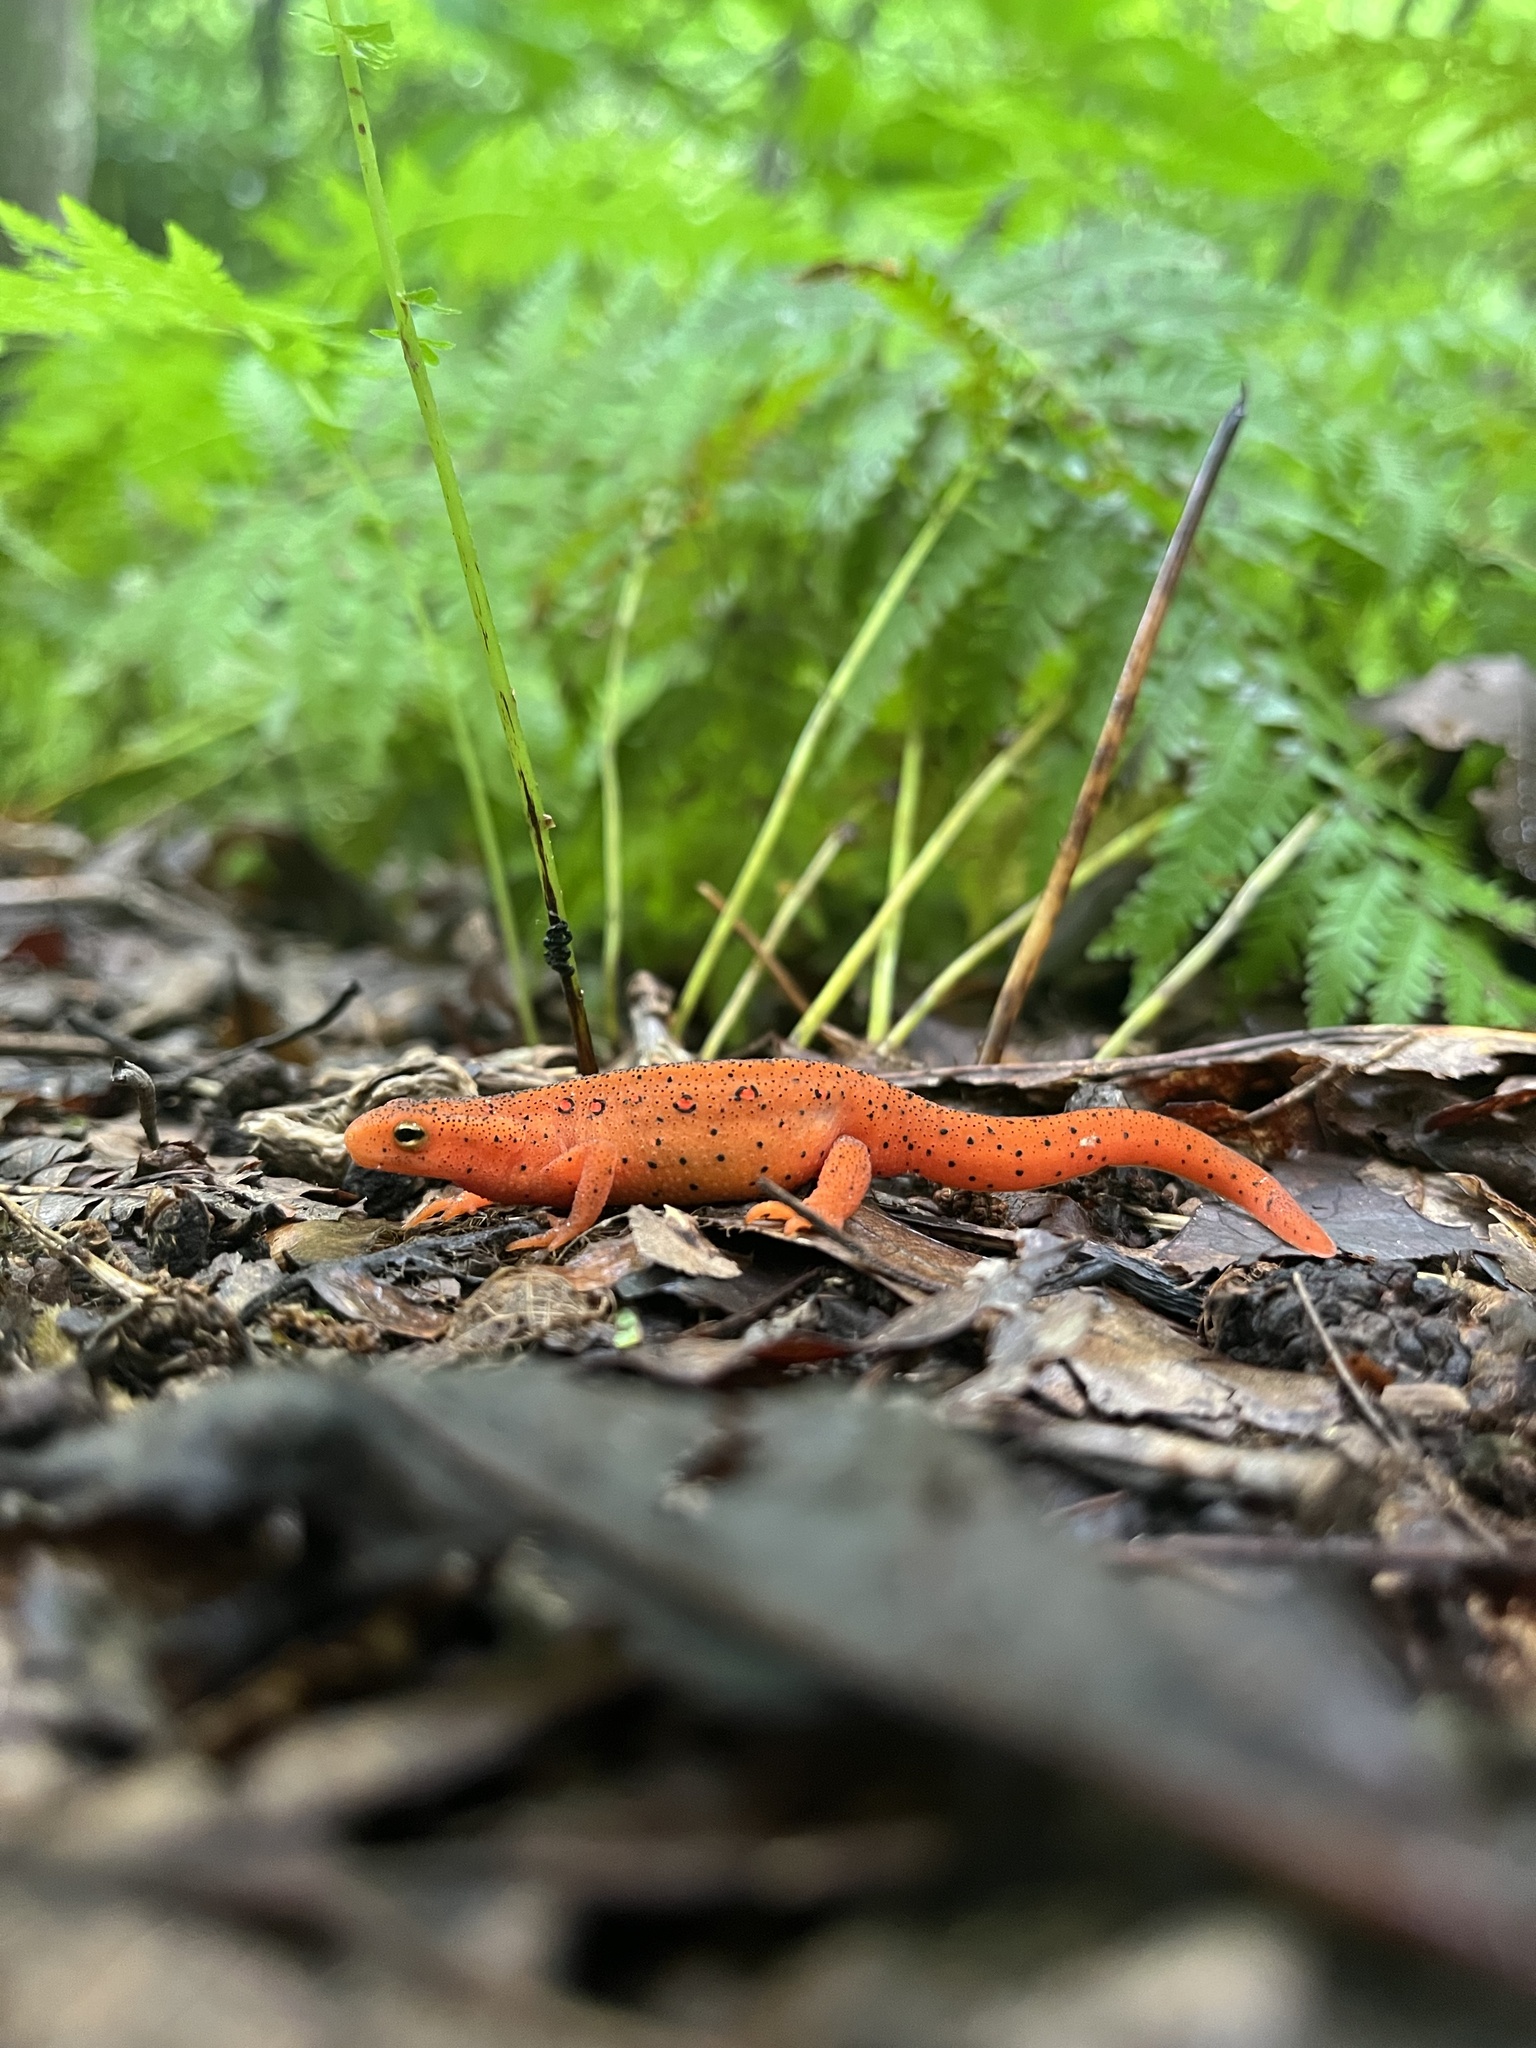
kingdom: Animalia
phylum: Chordata
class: Amphibia
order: Caudata
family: Salamandridae
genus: Notophthalmus
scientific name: Notophthalmus viridescens
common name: Eastern newt
